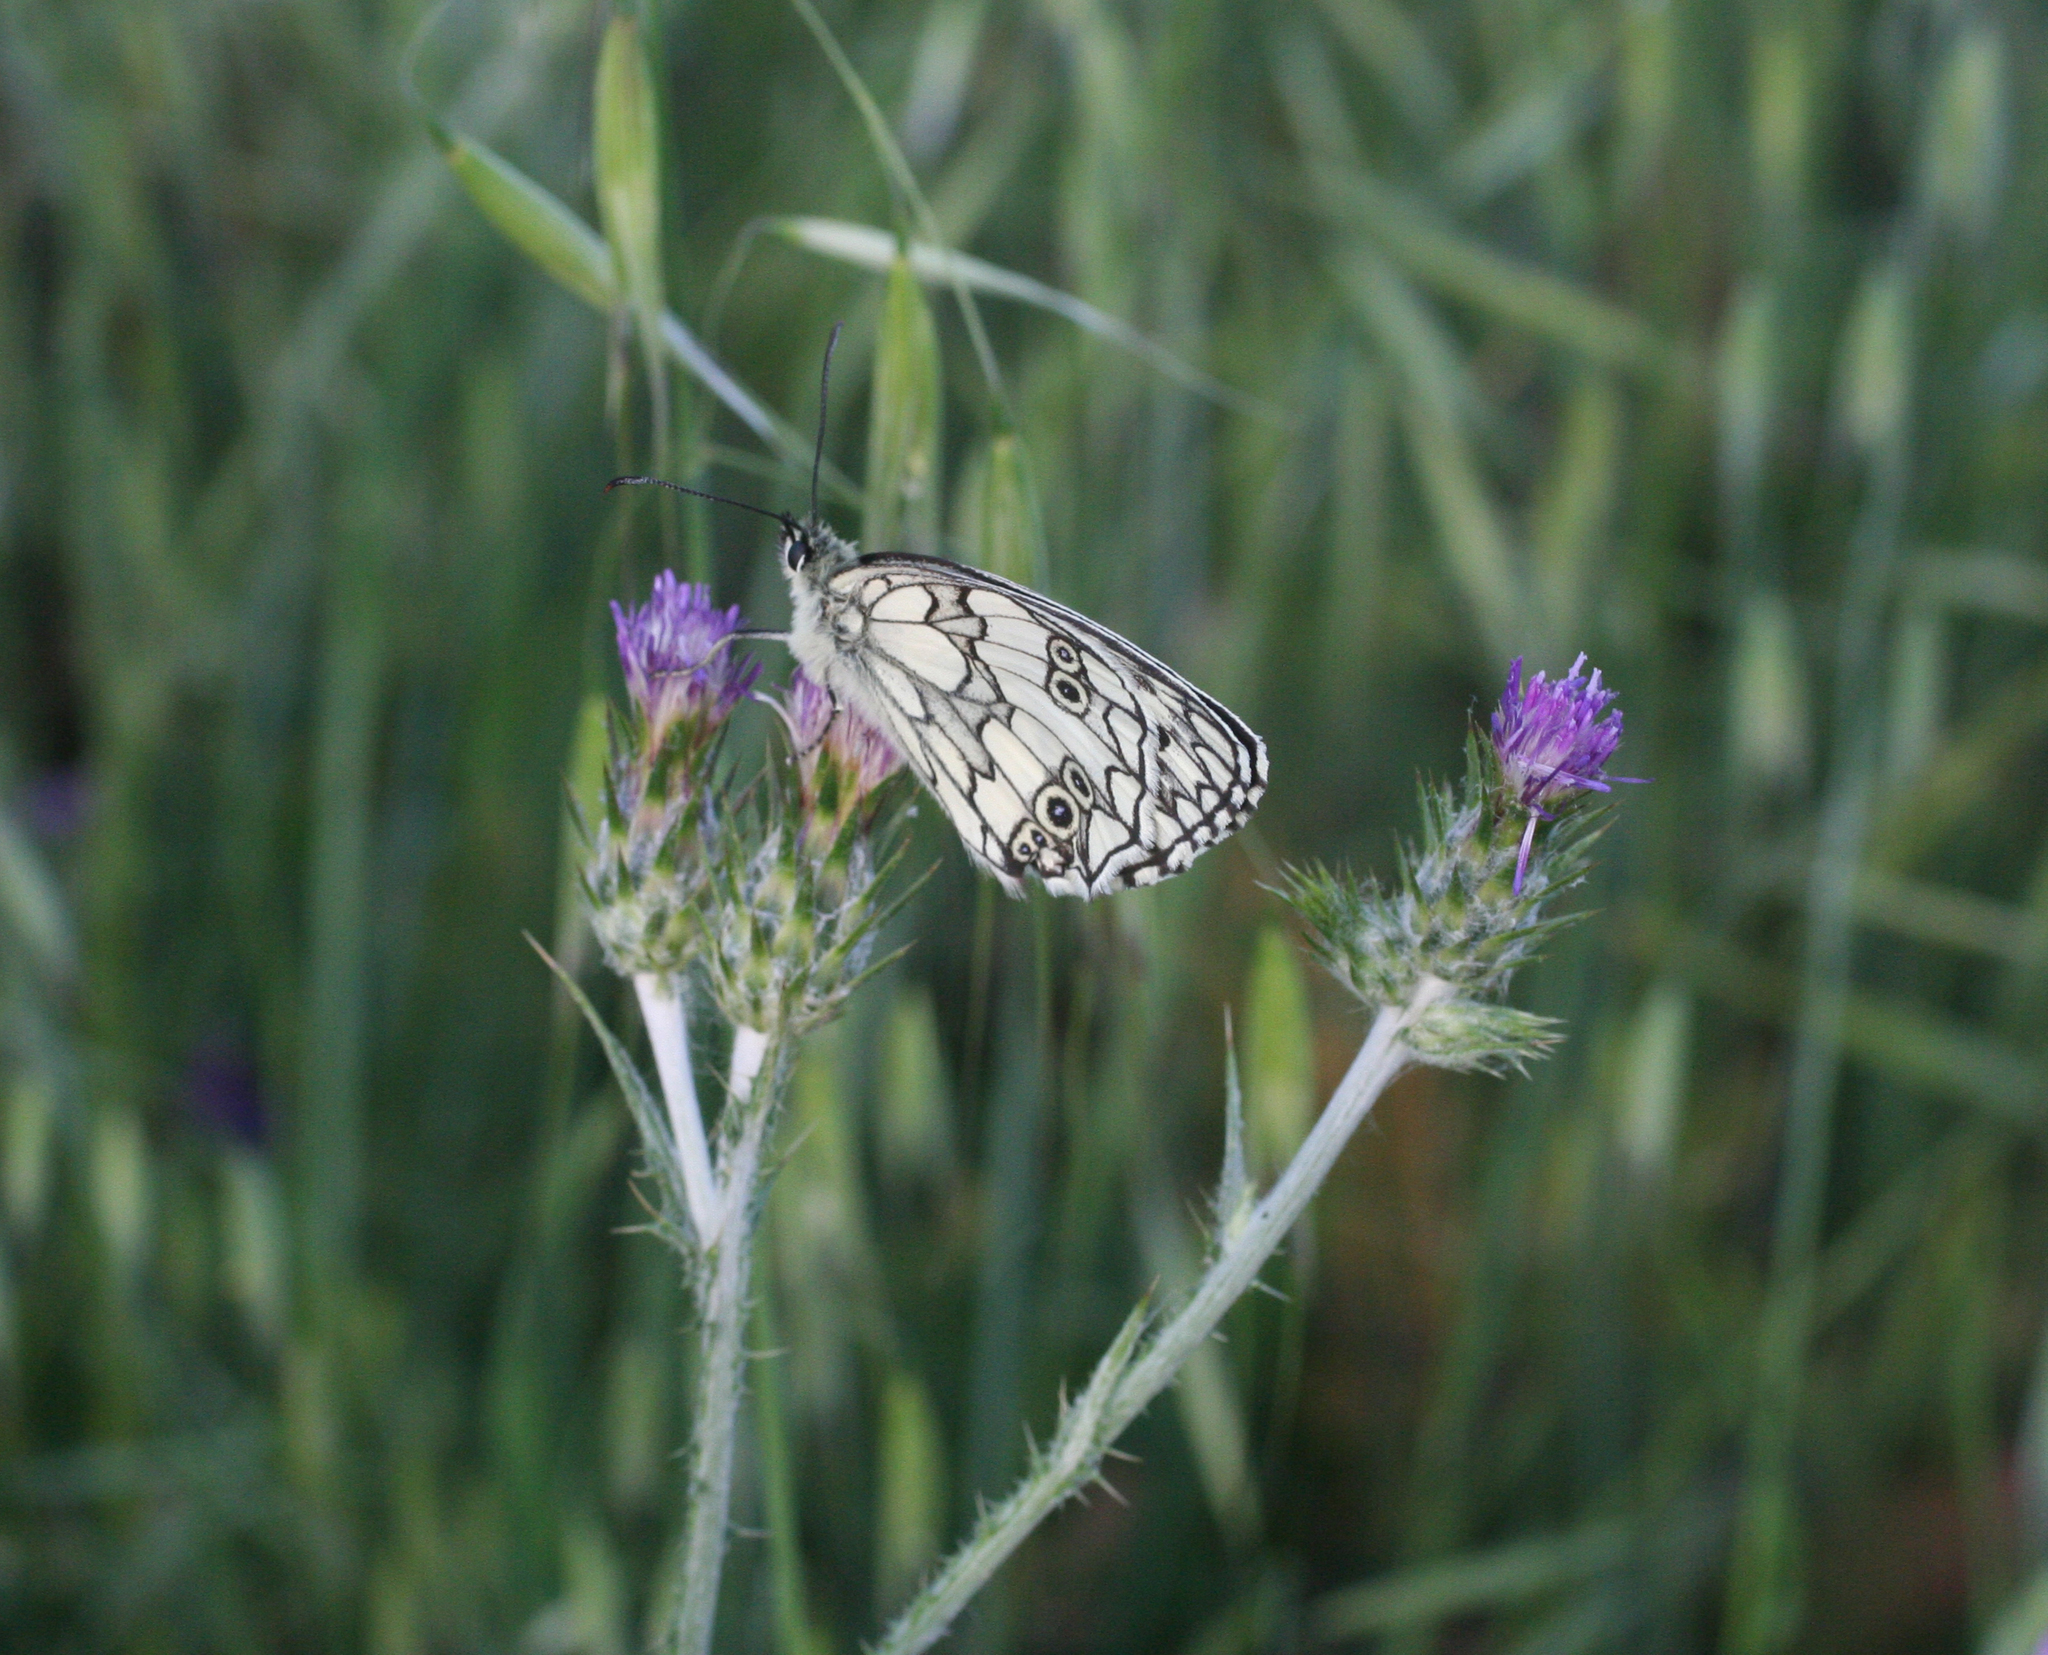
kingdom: Animalia
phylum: Arthropoda
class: Insecta
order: Lepidoptera
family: Nymphalidae
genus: Melanargia
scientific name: Melanargia lucasi
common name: Moroccan marbled white
